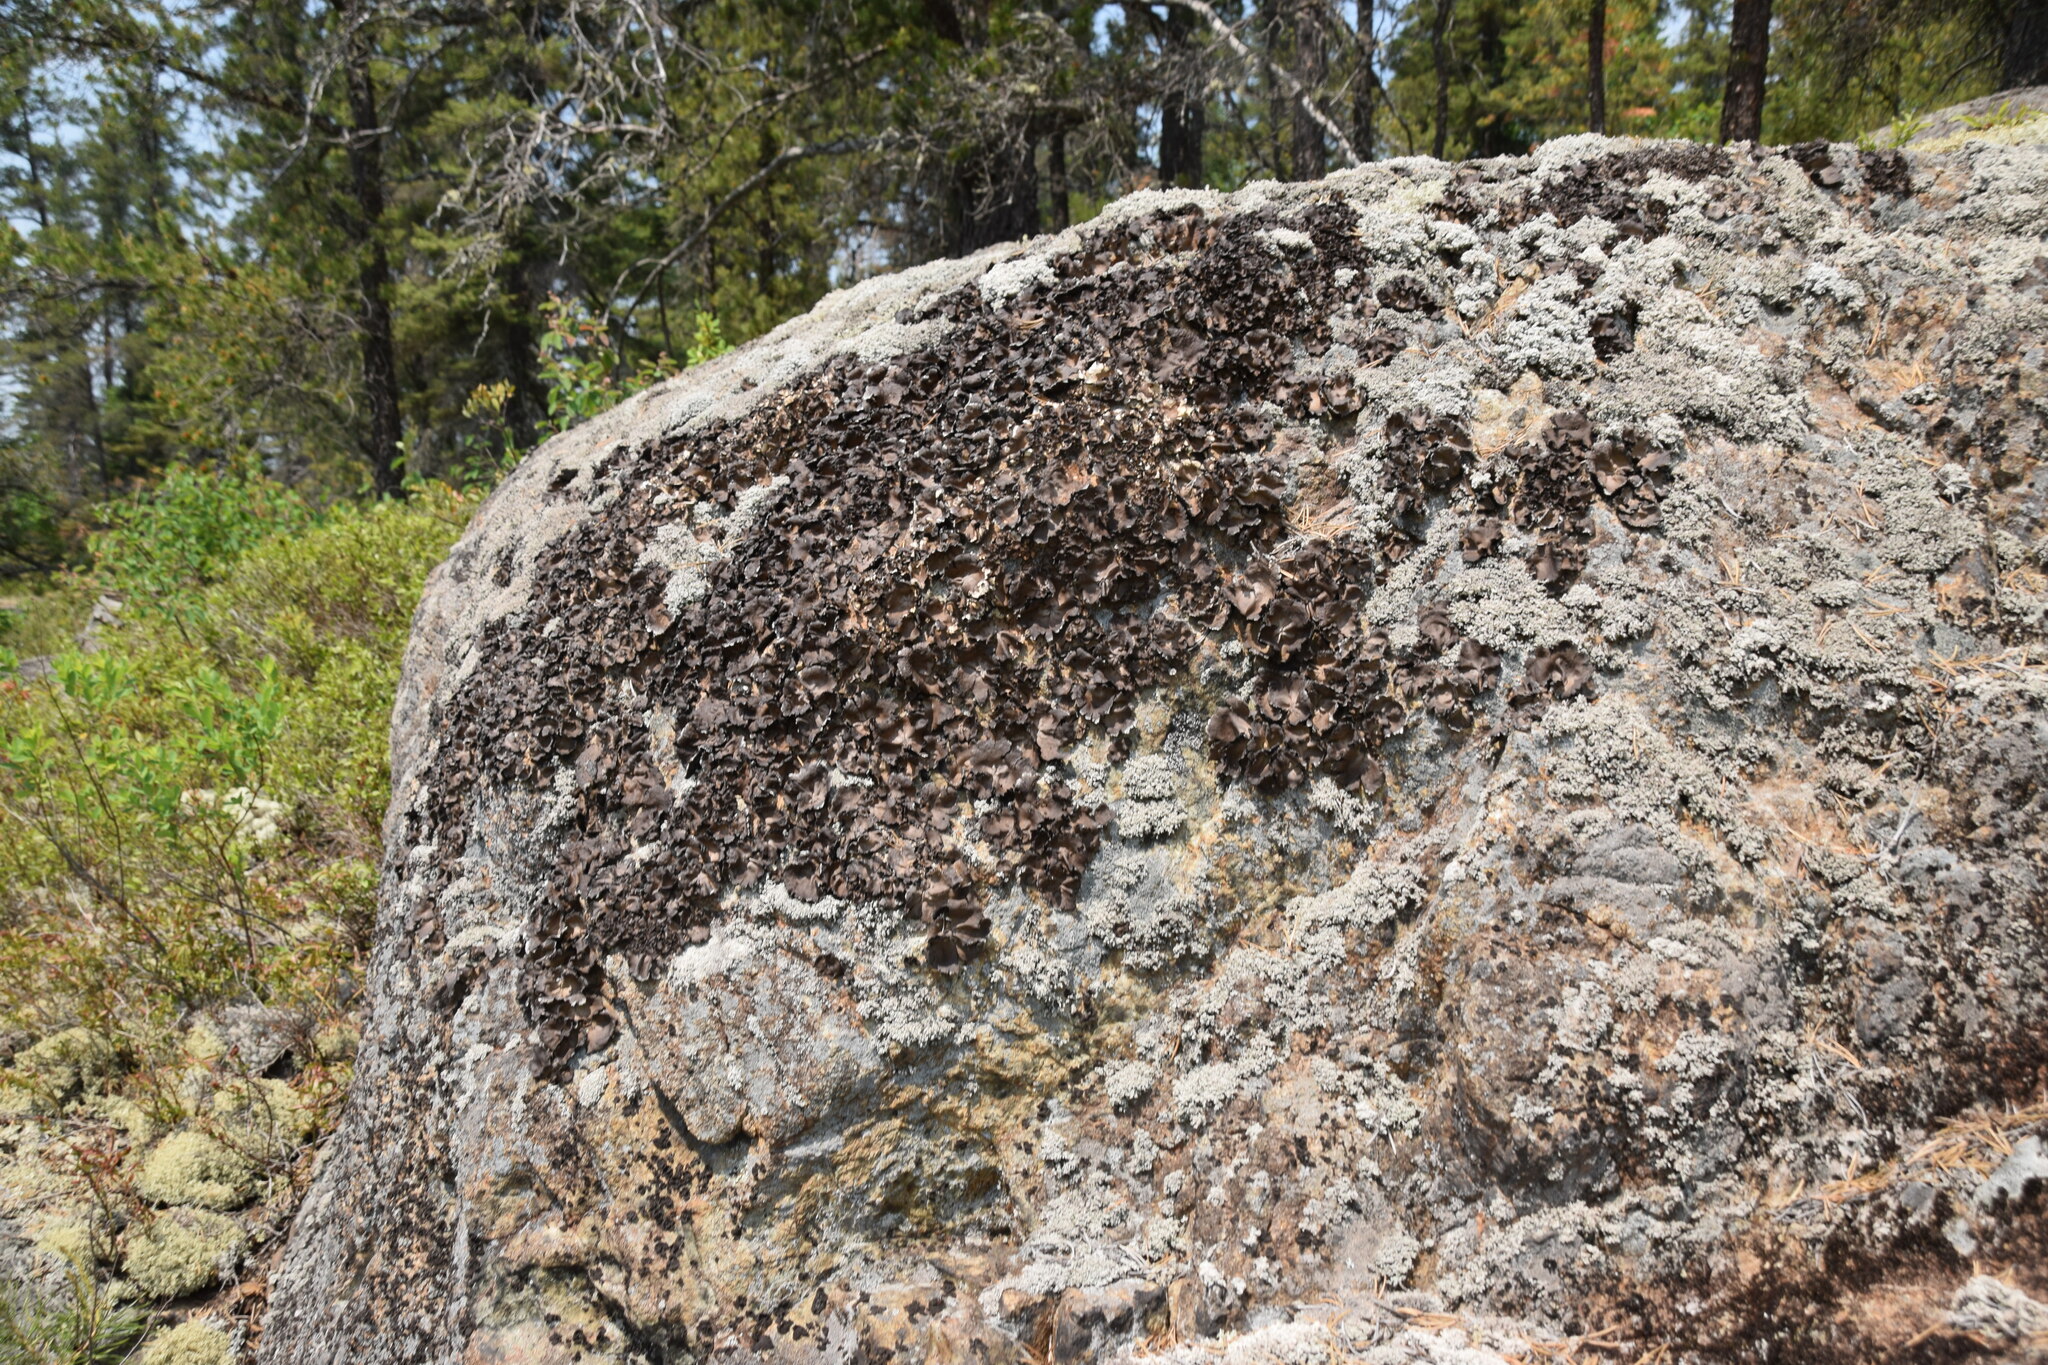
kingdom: Fungi
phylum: Ascomycota
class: Lecanoromycetes
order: Umbilicariales
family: Umbilicariaceae
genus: Umbilicaria
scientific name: Umbilicaria muhlenbergii
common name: Lesser rocktripe
